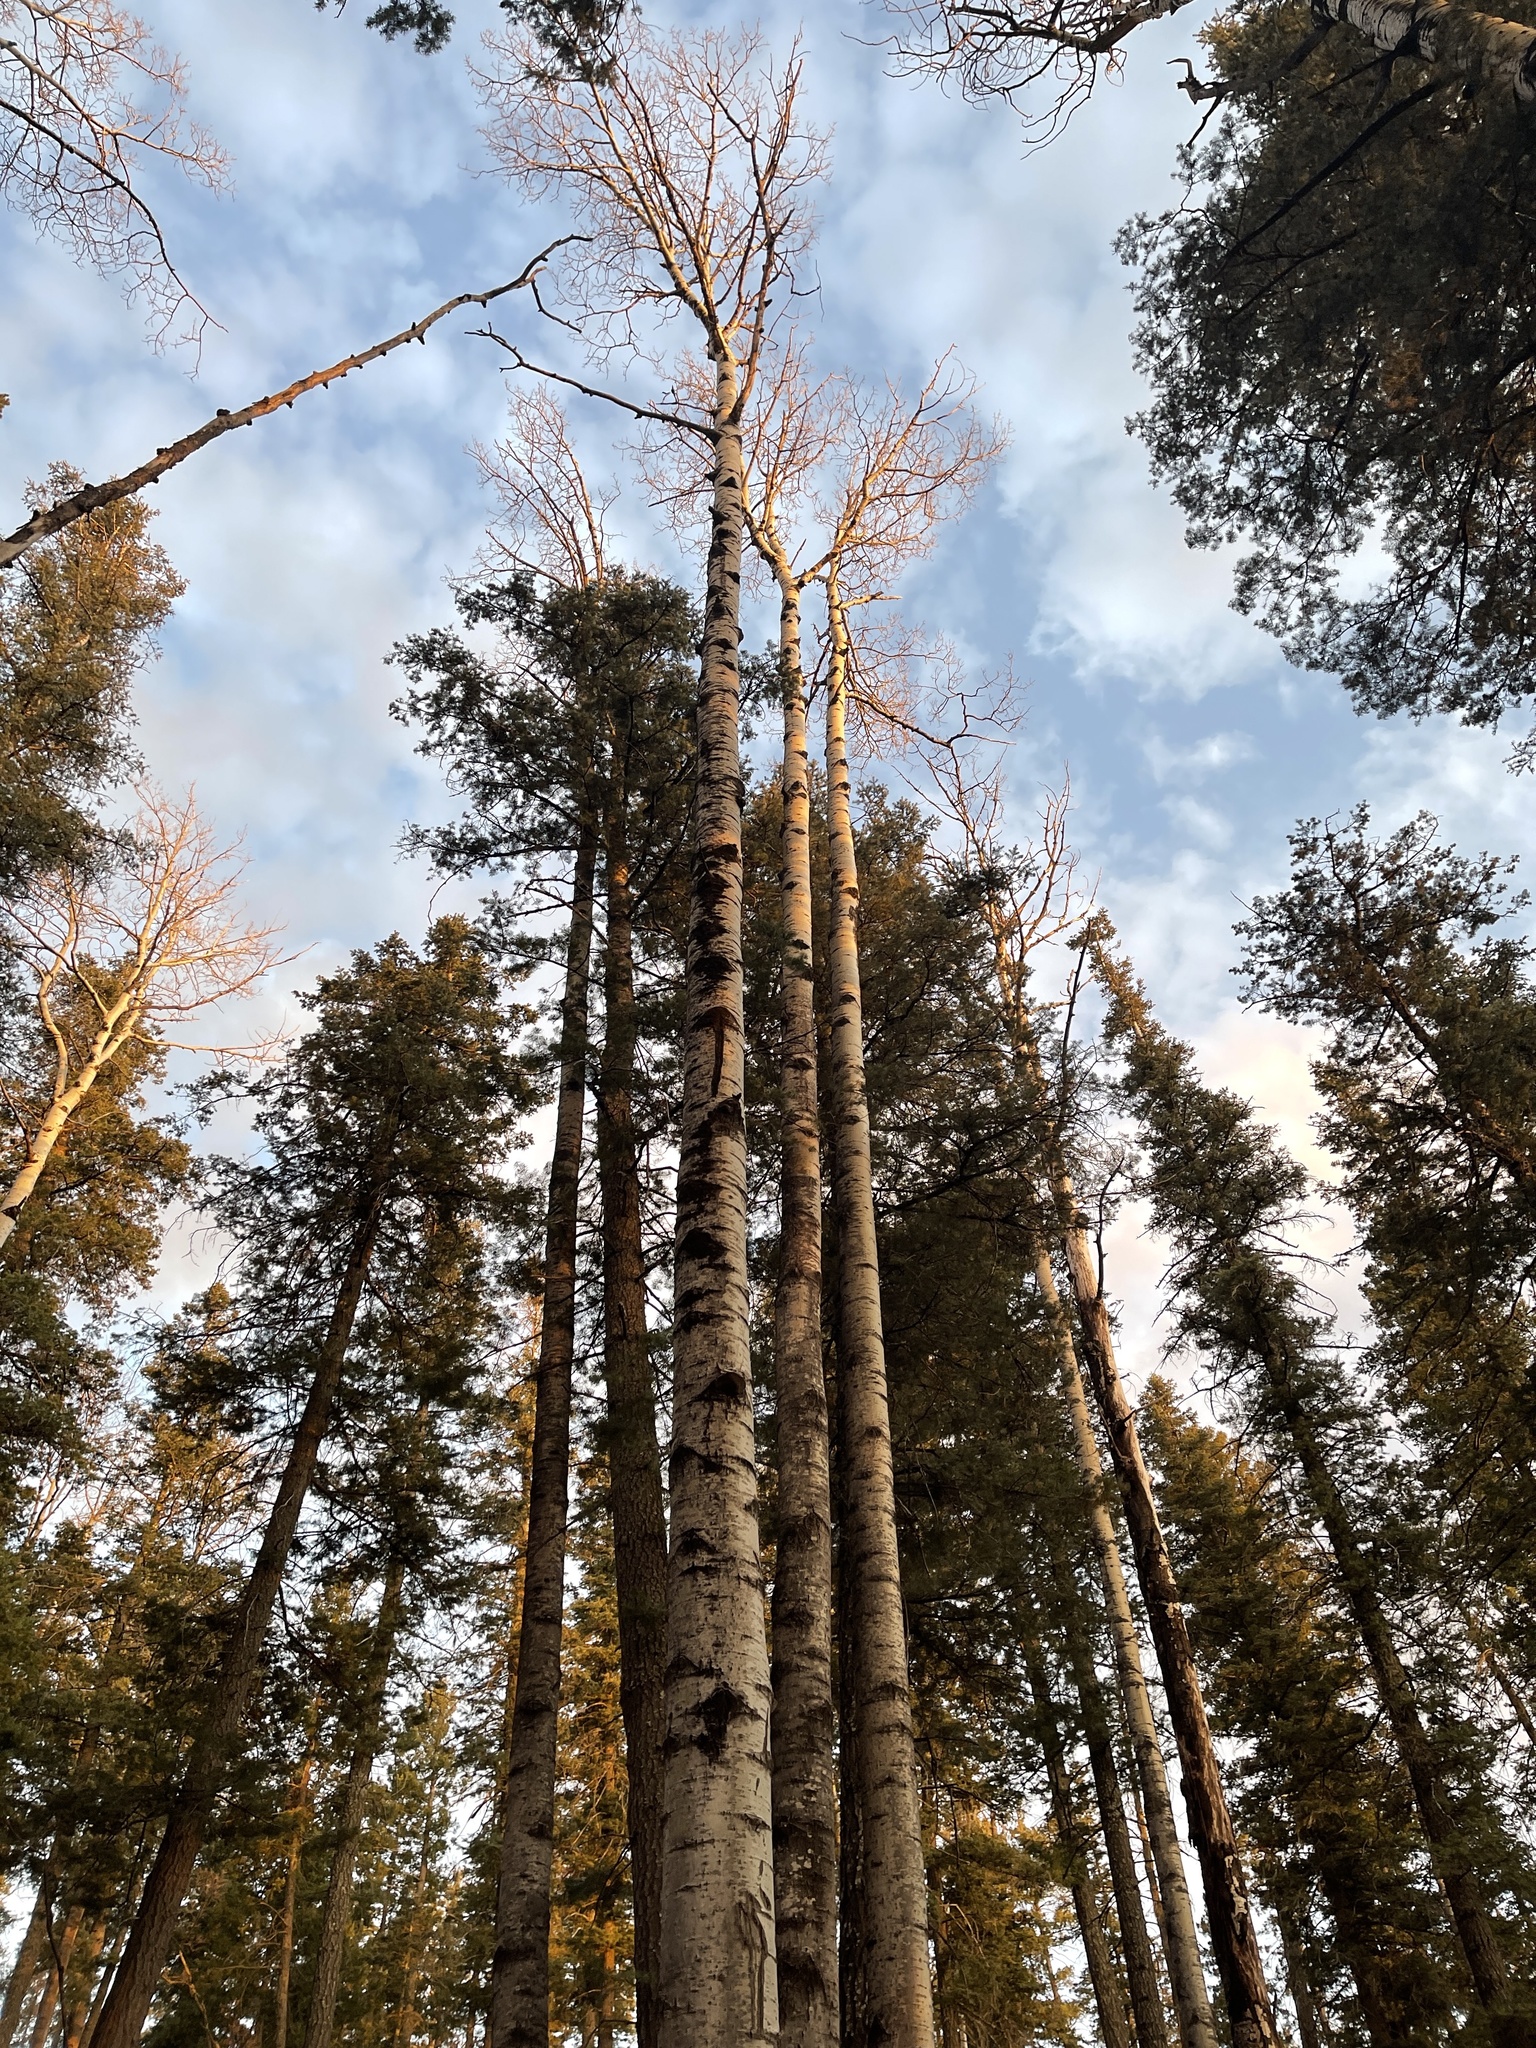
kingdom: Plantae
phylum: Tracheophyta
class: Magnoliopsida
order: Malpighiales
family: Salicaceae
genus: Populus
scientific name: Populus tremuloides
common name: Quaking aspen
